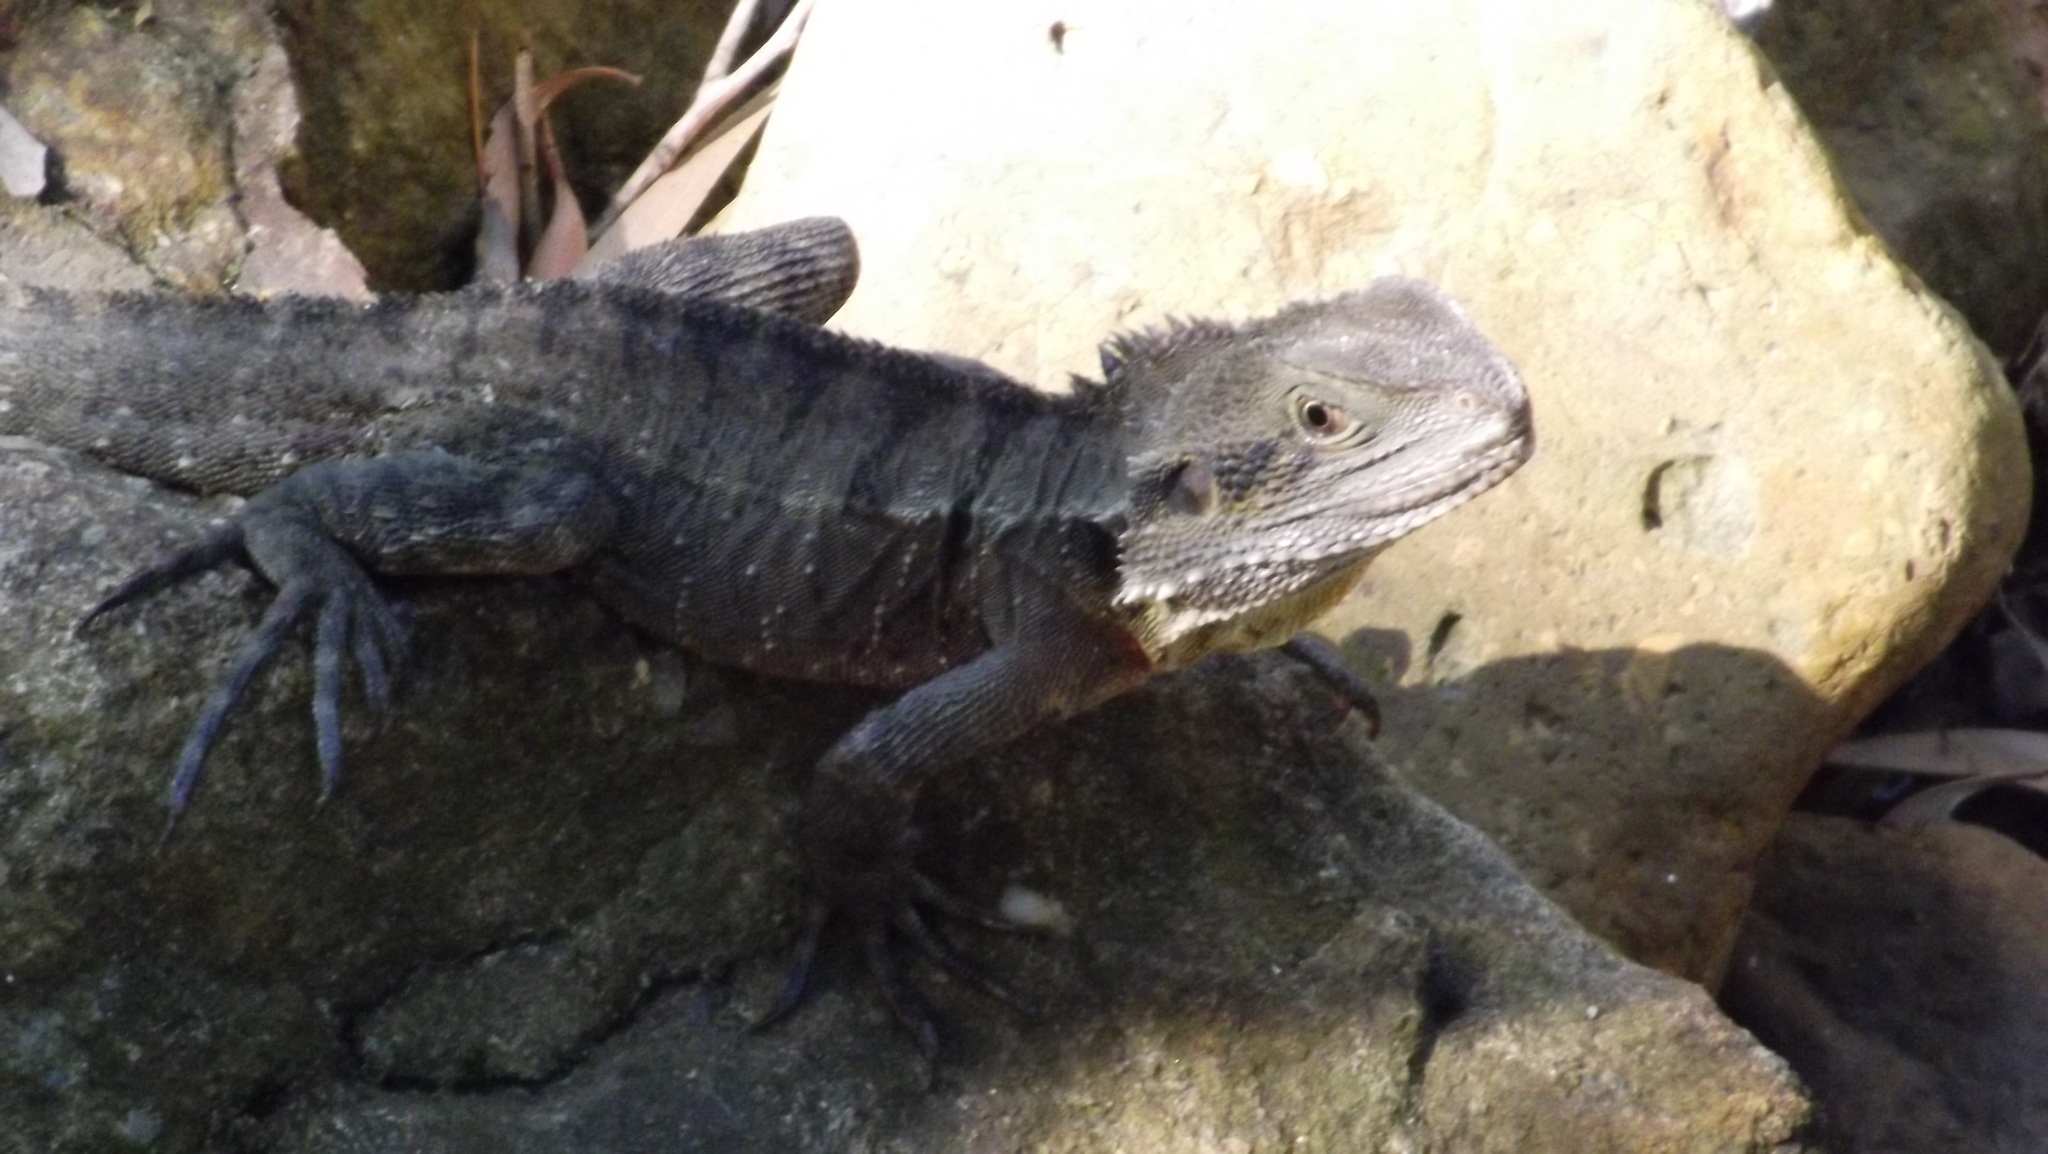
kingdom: Animalia
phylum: Chordata
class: Squamata
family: Agamidae
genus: Intellagama
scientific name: Intellagama lesueurii
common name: Eastern water dragon
